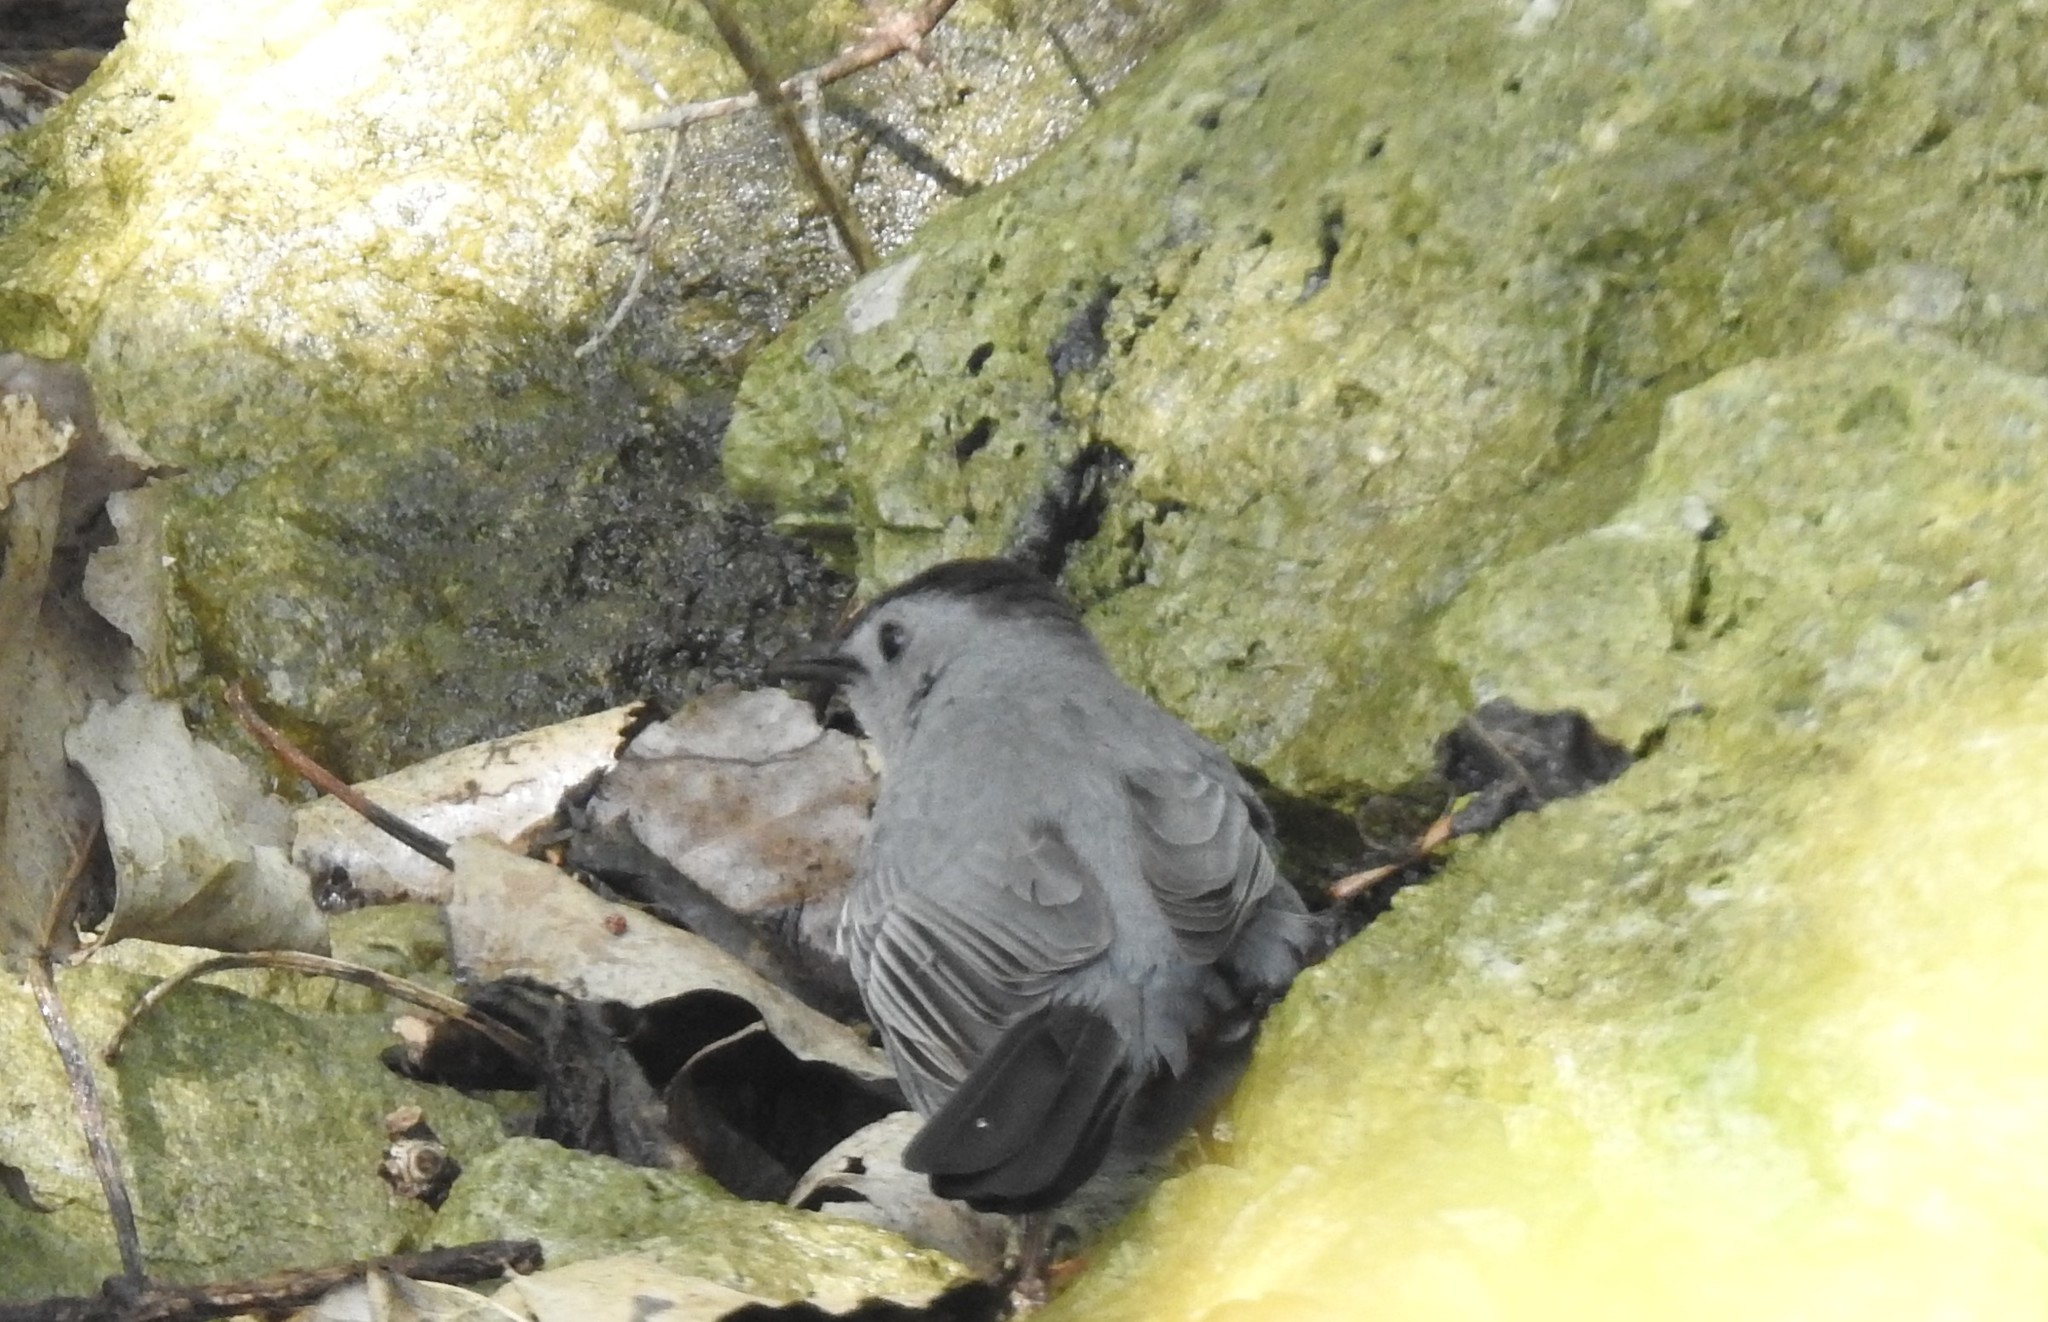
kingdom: Animalia
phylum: Chordata
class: Aves
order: Passeriformes
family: Mimidae
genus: Dumetella
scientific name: Dumetella carolinensis
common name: Gray catbird
